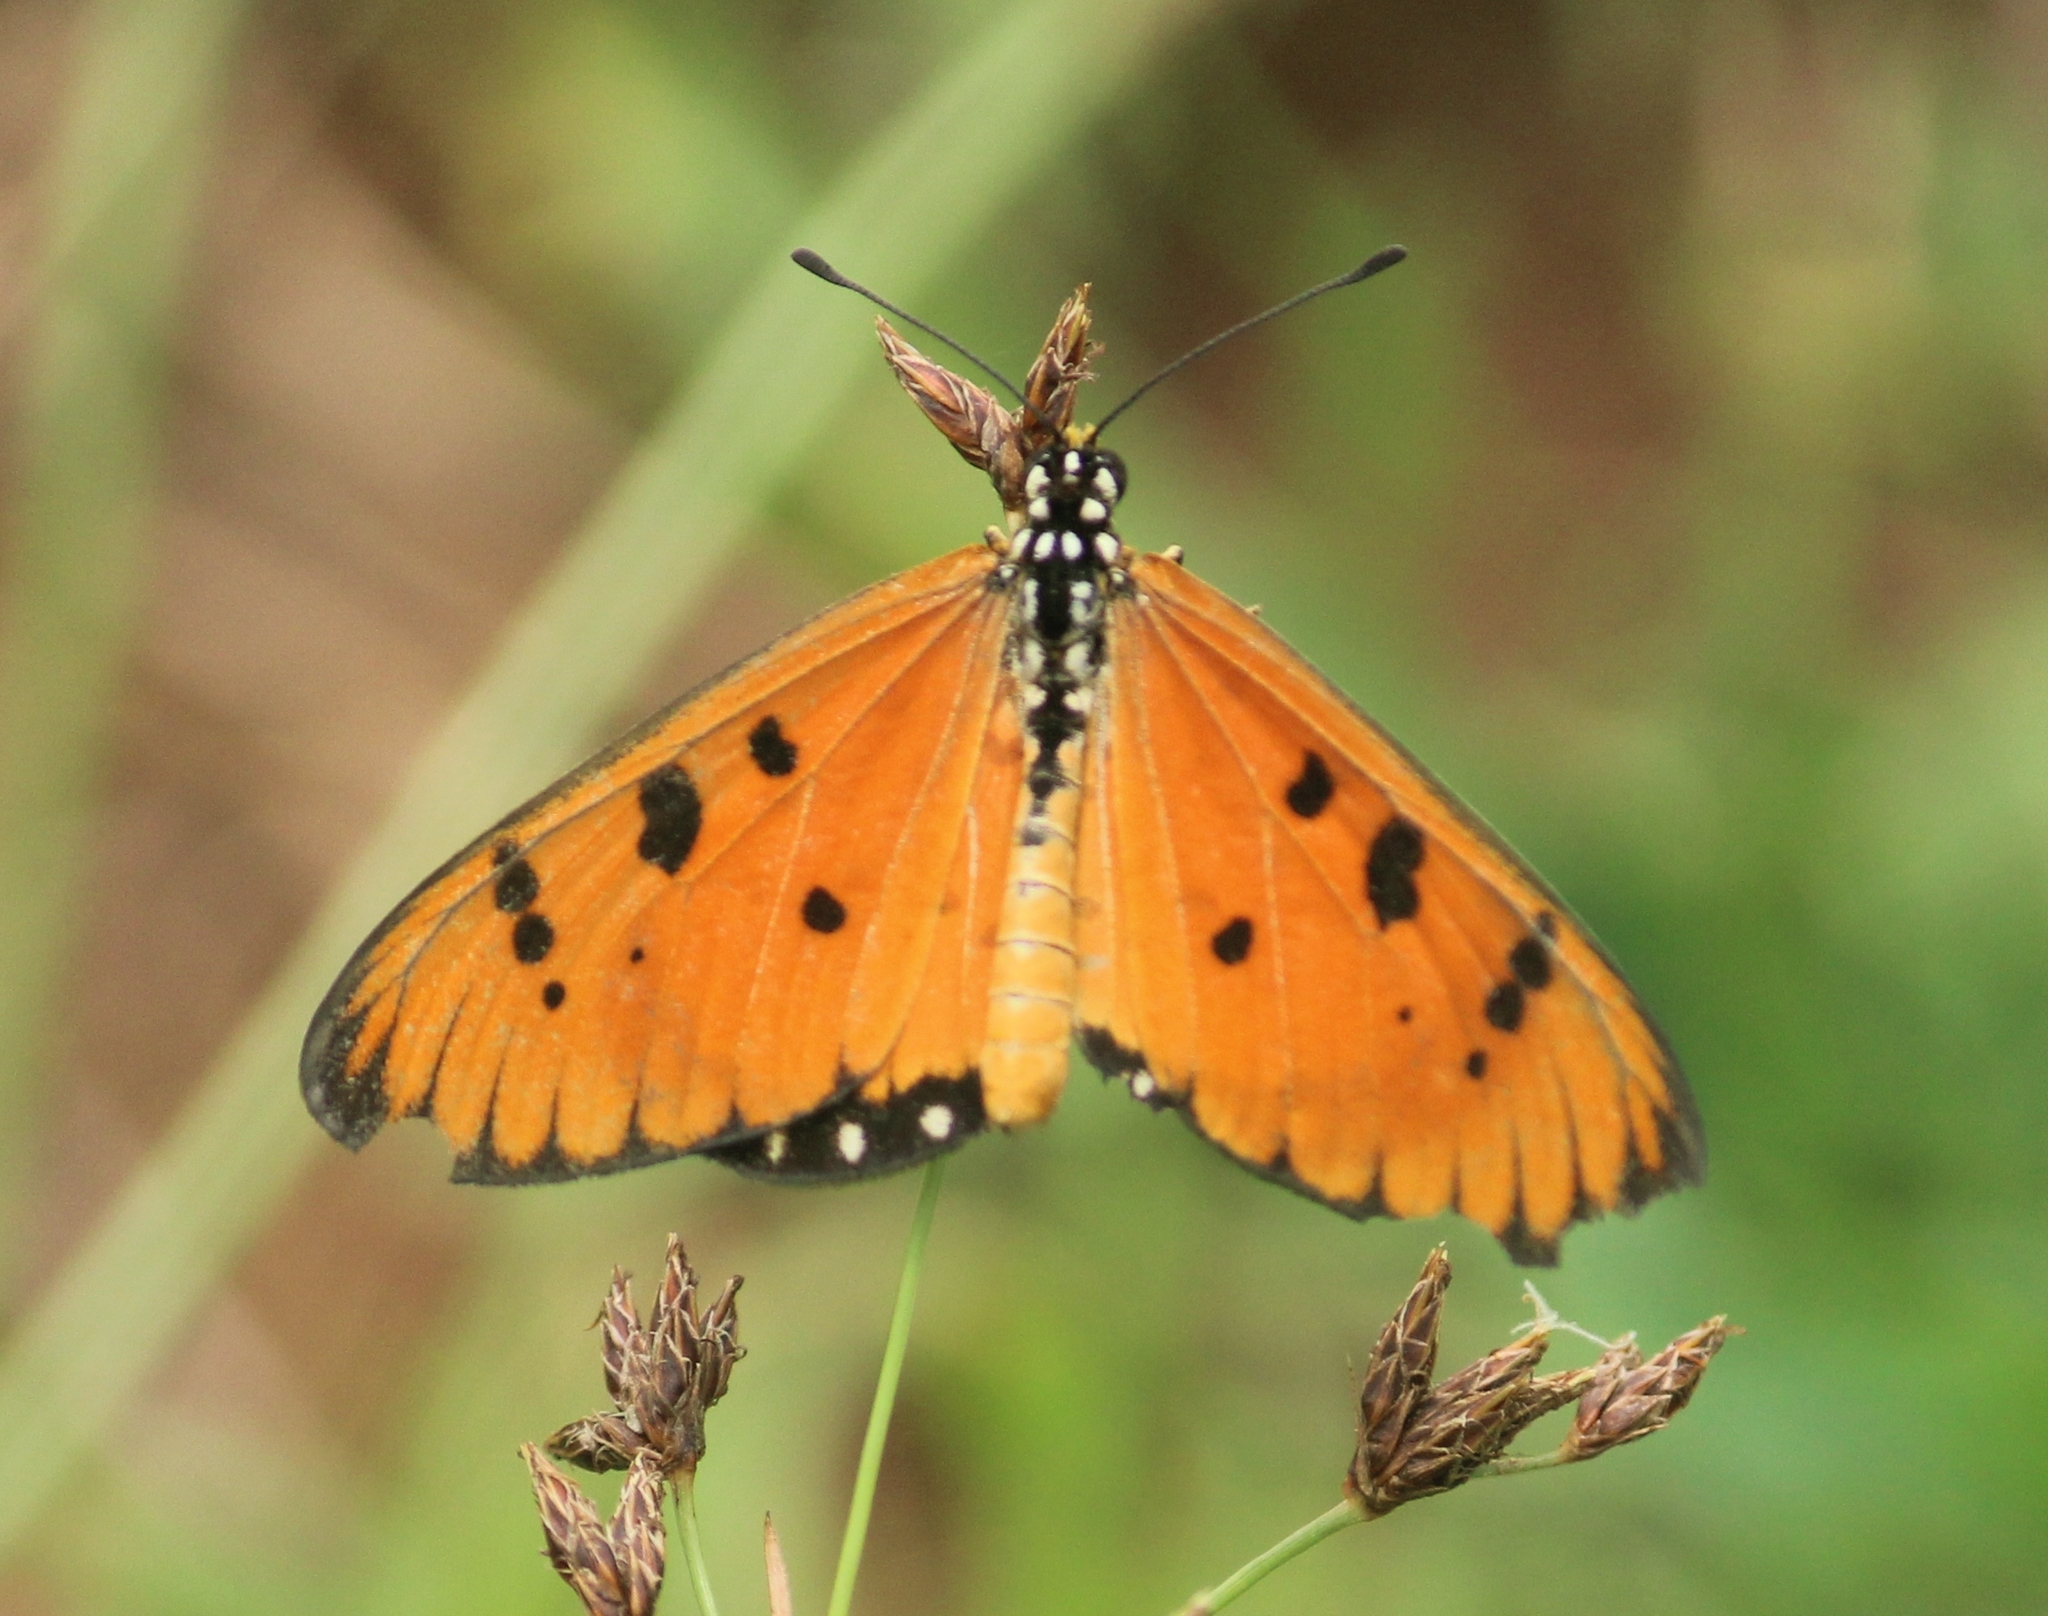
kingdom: Animalia
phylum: Arthropoda
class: Insecta
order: Lepidoptera
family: Nymphalidae
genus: Acraea
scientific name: Acraea terpsicore
